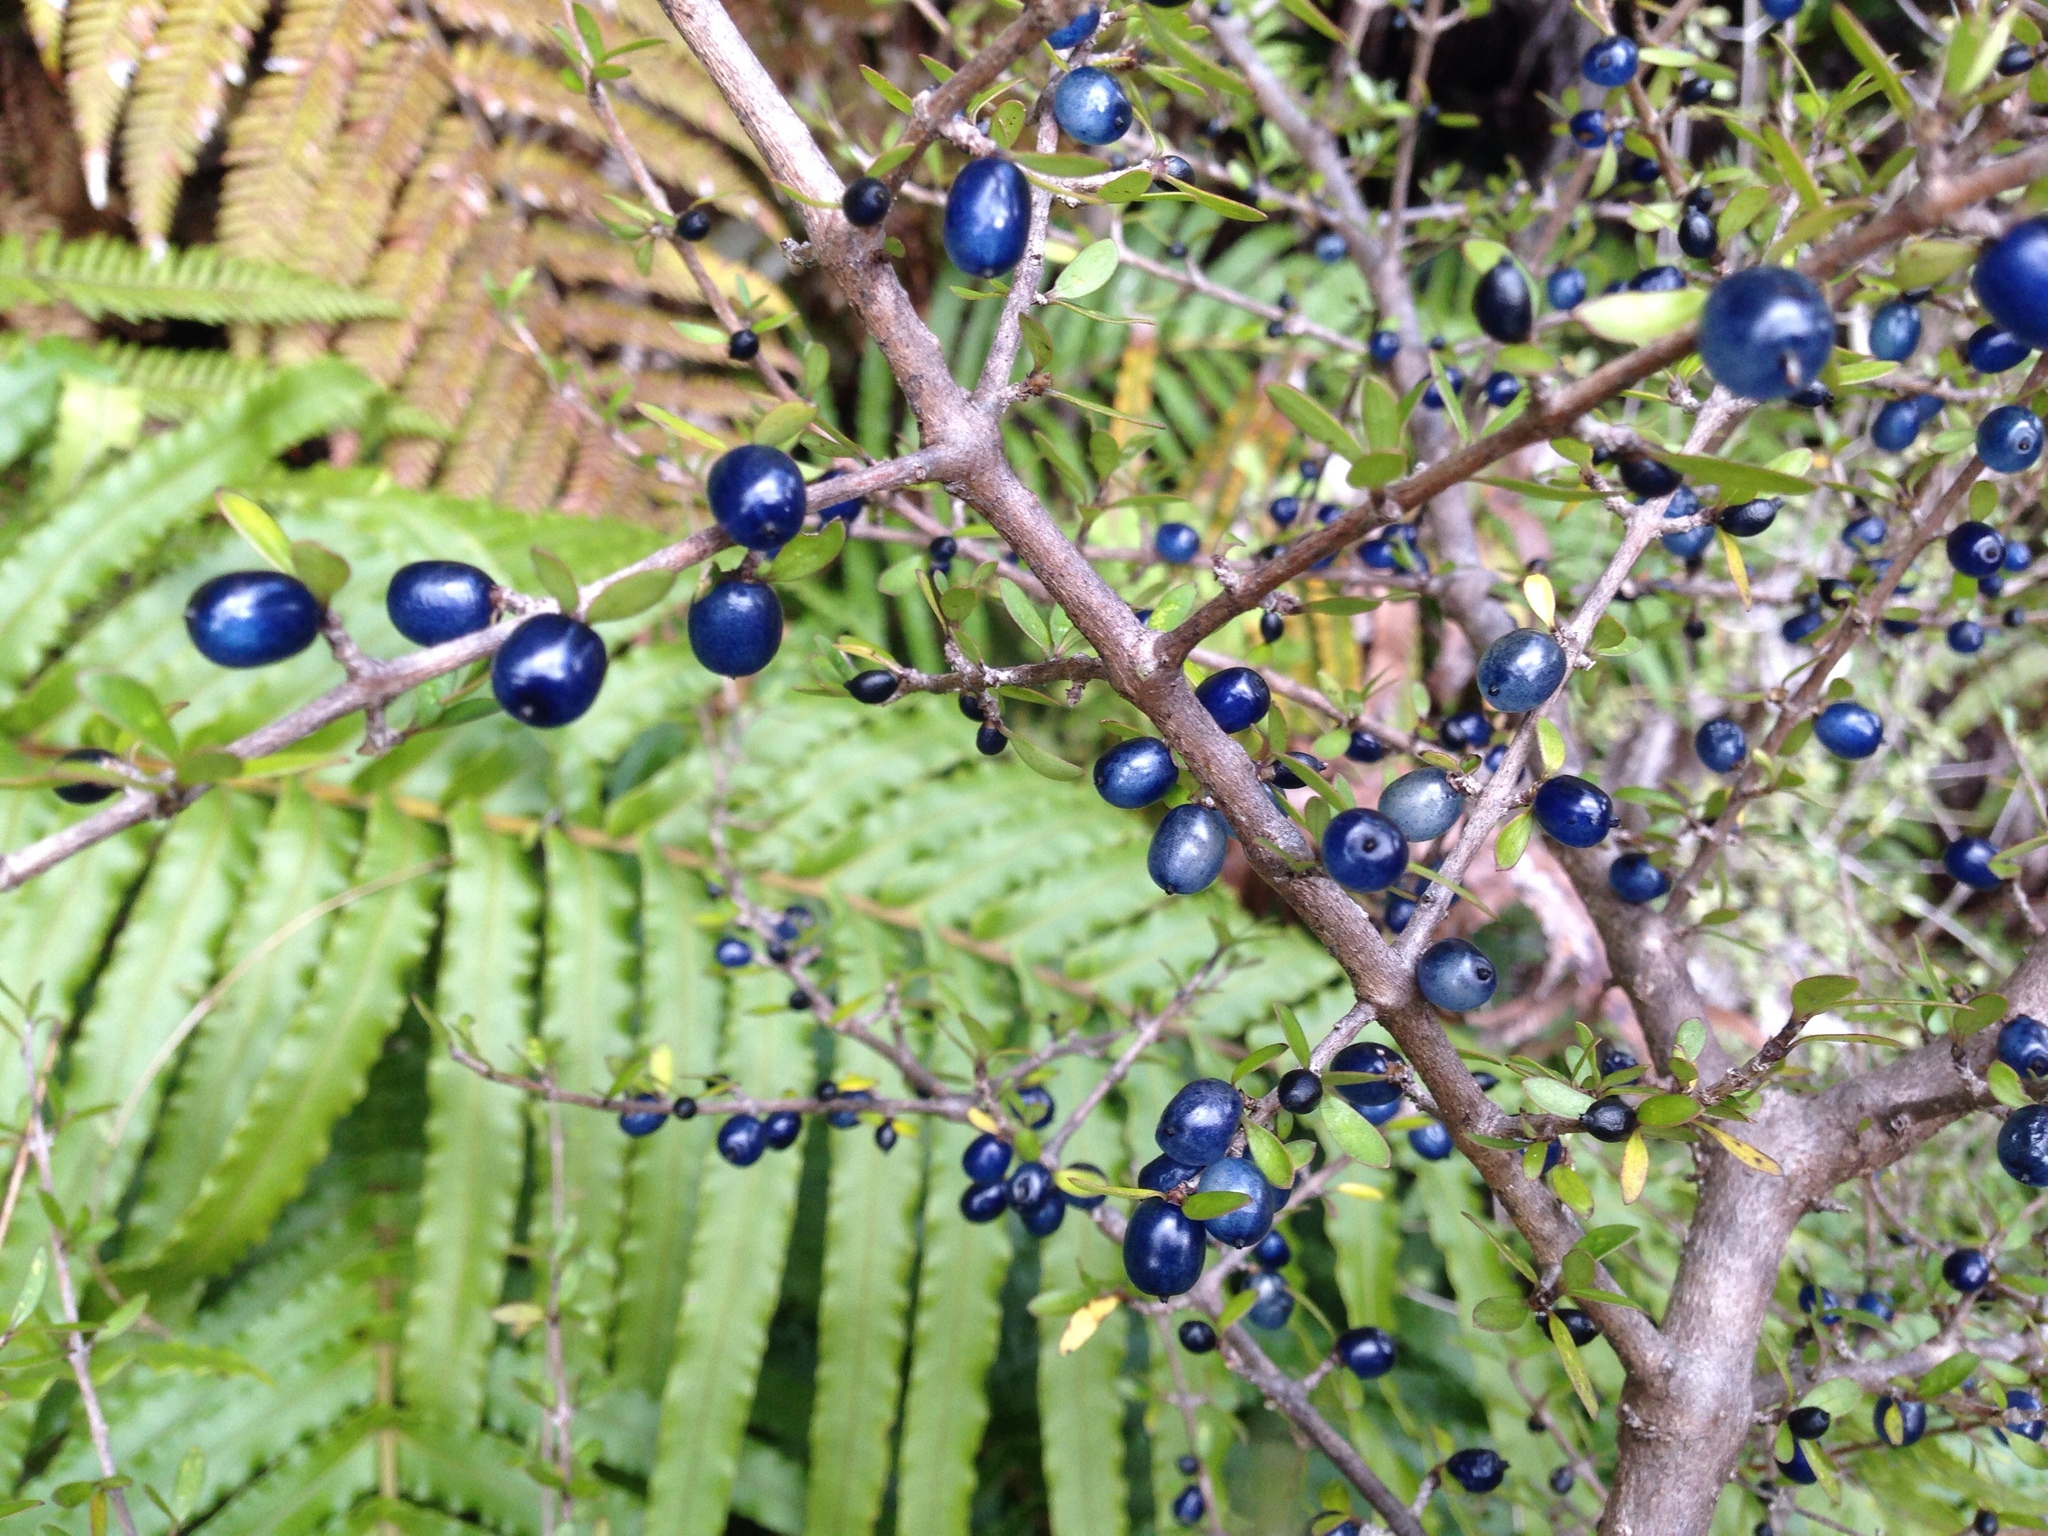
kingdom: Plantae
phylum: Tracheophyta
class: Magnoliopsida
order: Gentianales
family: Rubiaceae
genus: Coprosma
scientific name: Coprosma propinqua
